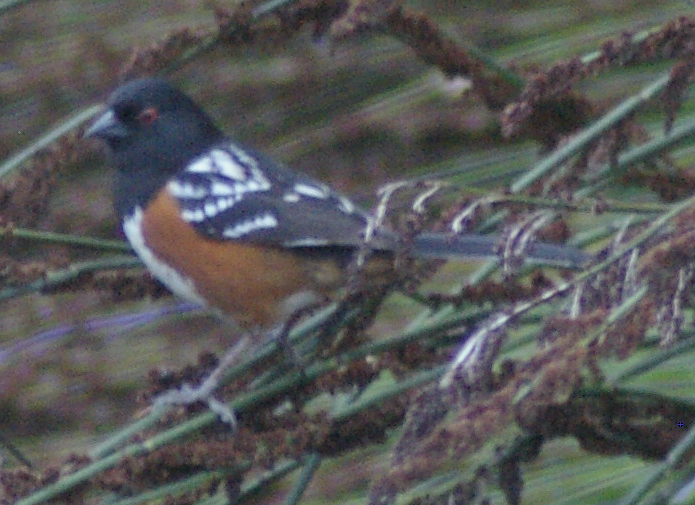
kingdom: Animalia
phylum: Chordata
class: Aves
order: Passeriformes
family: Passerellidae
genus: Pipilo
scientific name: Pipilo maculatus
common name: Spotted towhee
